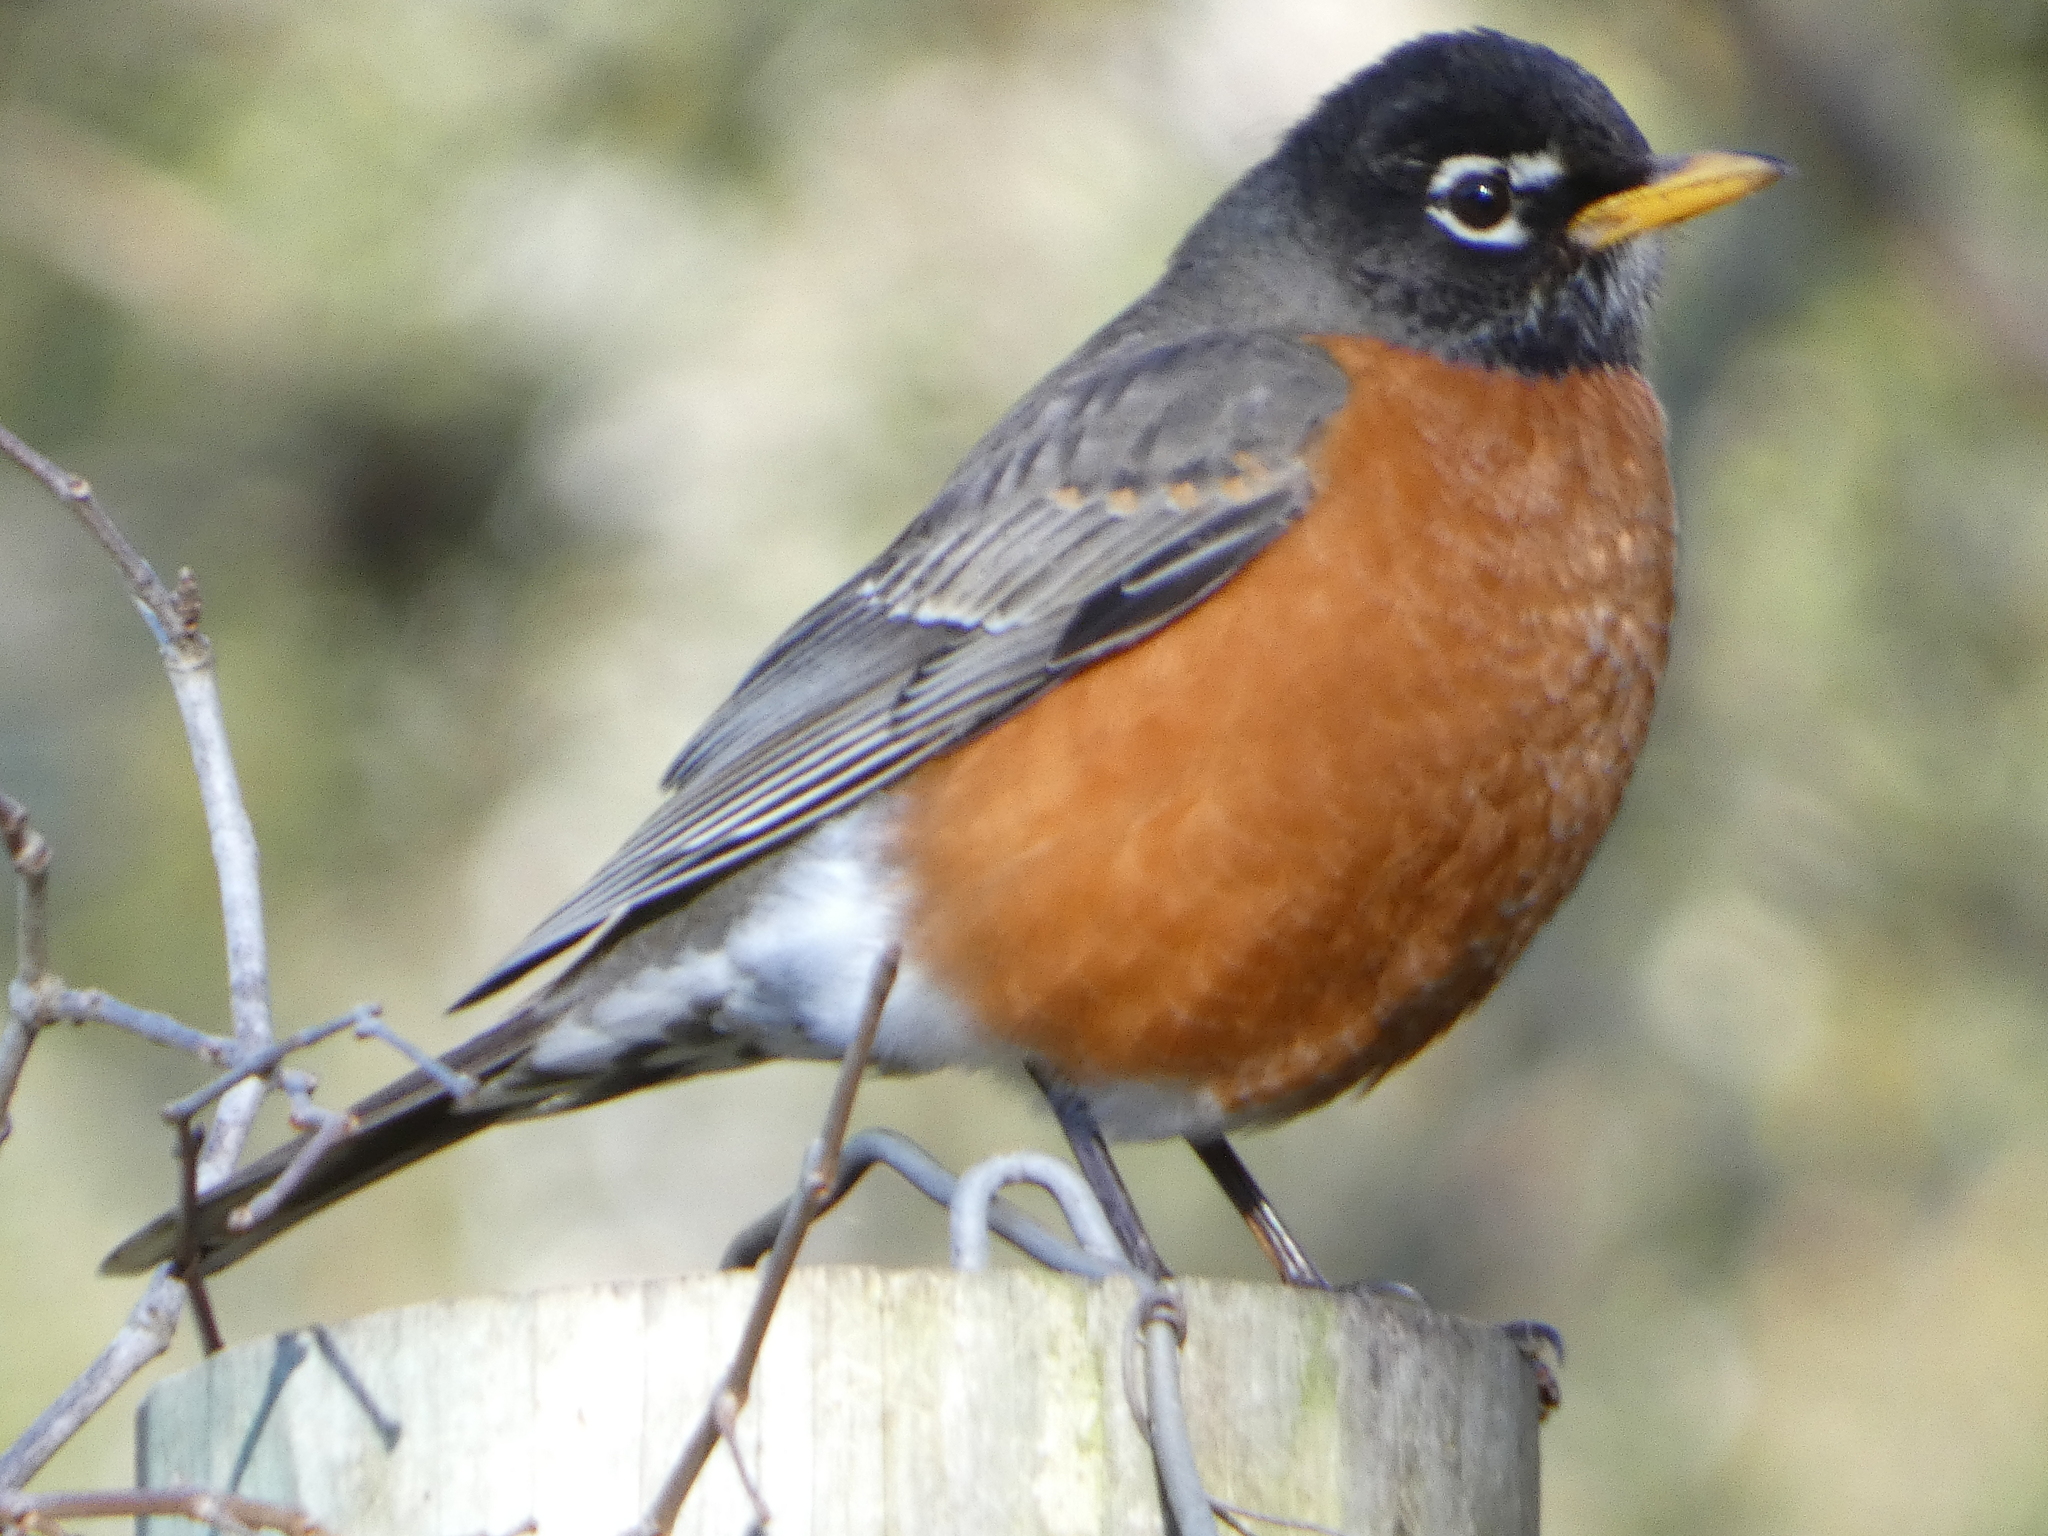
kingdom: Animalia
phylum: Chordata
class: Aves
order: Passeriformes
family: Turdidae
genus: Turdus
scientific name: Turdus migratorius
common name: American robin
